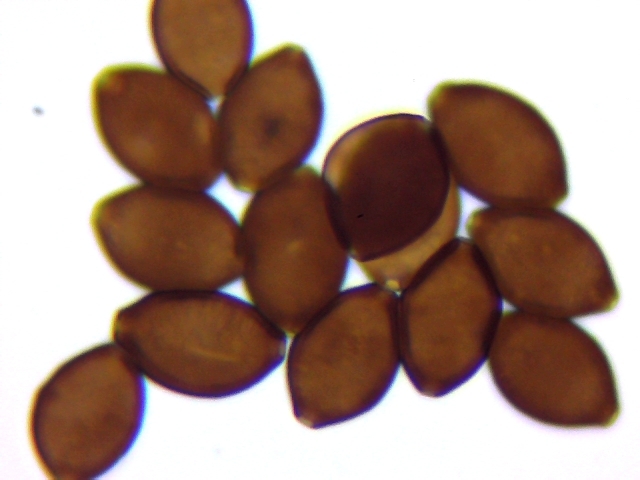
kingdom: Chromista
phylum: Myzozoa
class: Conoidasida
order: Neogregarinorida
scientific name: Neogregarinorida
